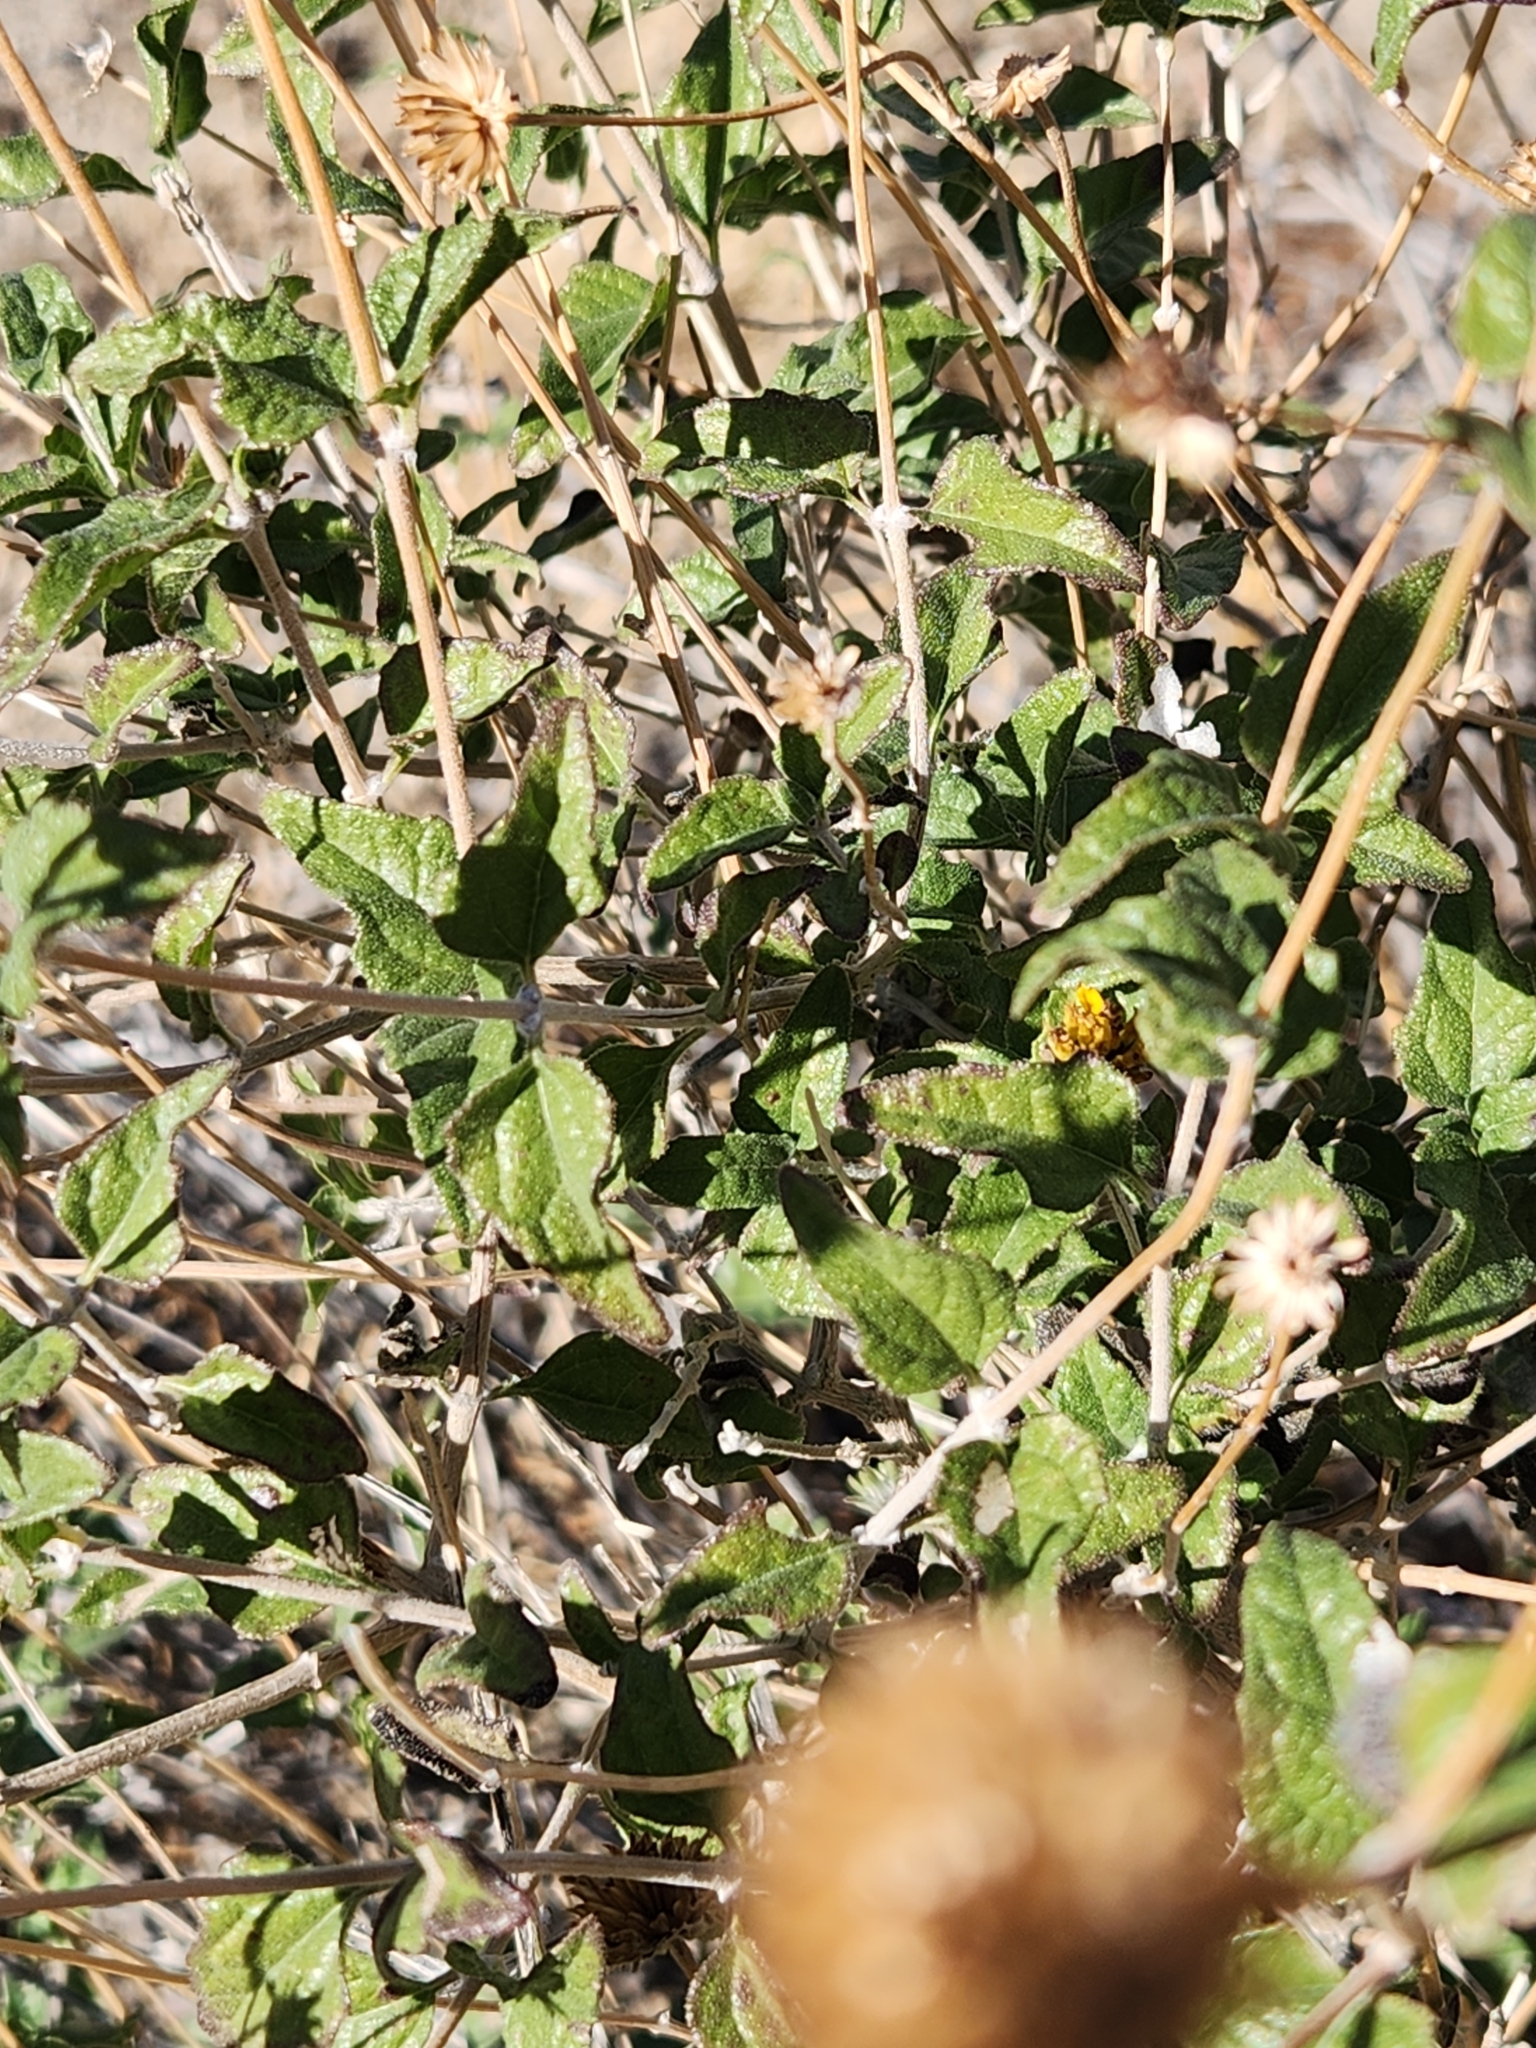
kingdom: Plantae
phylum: Tracheophyta
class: Magnoliopsida
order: Asterales
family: Asteraceae
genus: Bahiopsis
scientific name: Bahiopsis parishii
